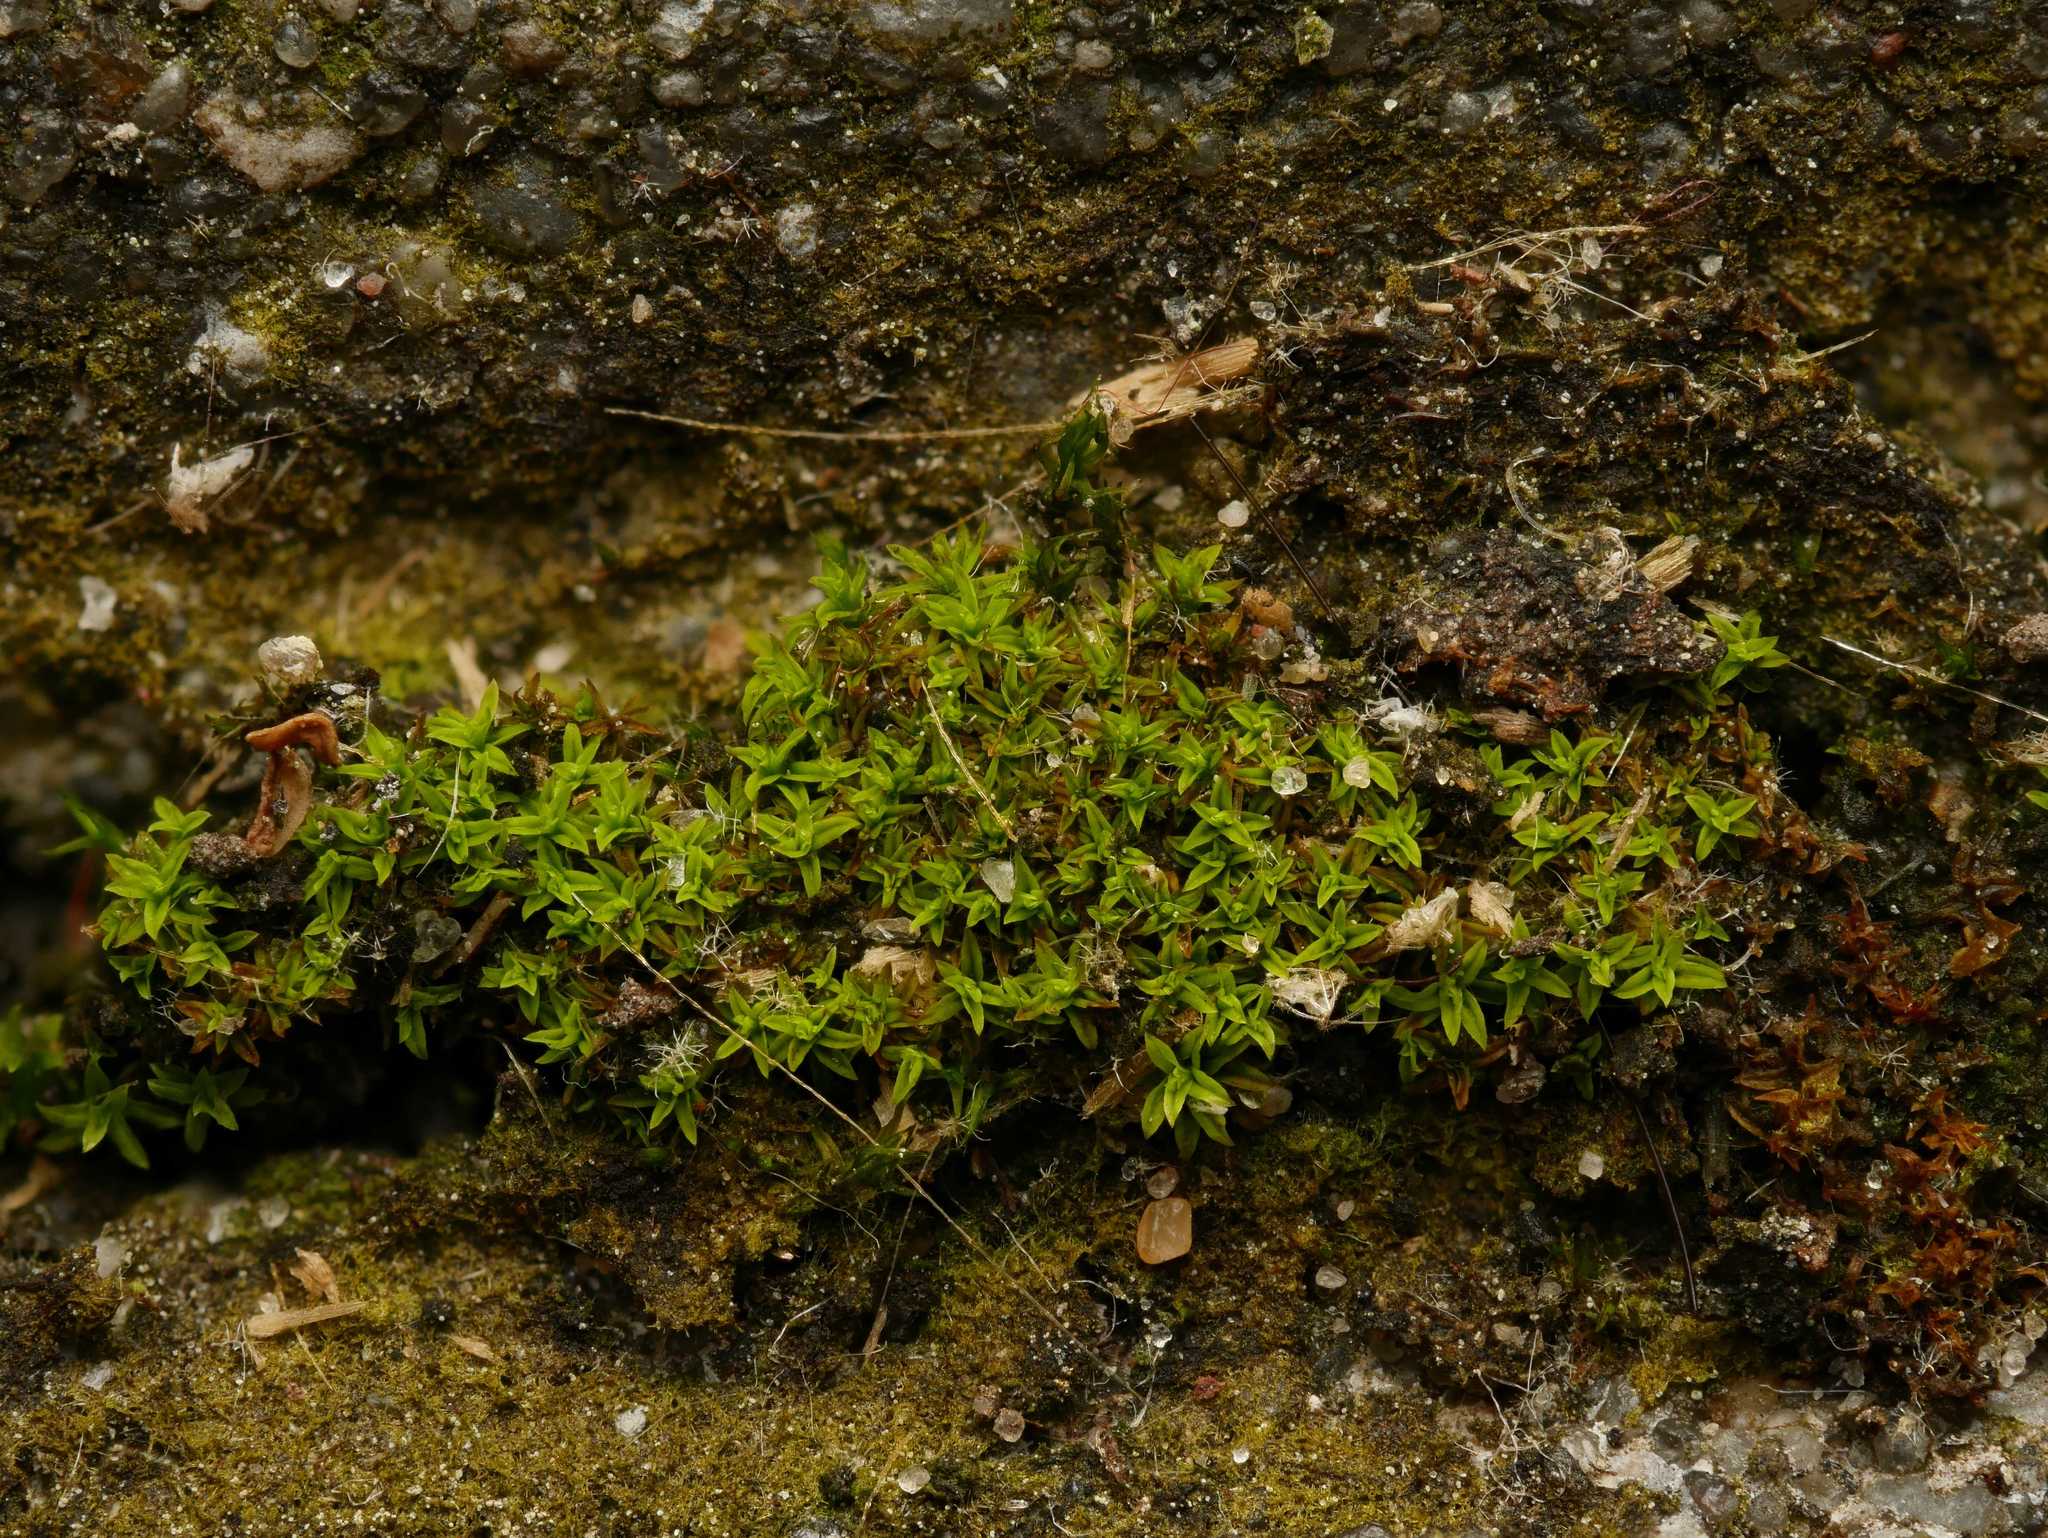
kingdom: Plantae
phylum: Bryophyta
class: Bryopsida
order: Pottiales
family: Pottiaceae
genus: Barbula
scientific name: Barbula unguiculata
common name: Prickly beard moss
